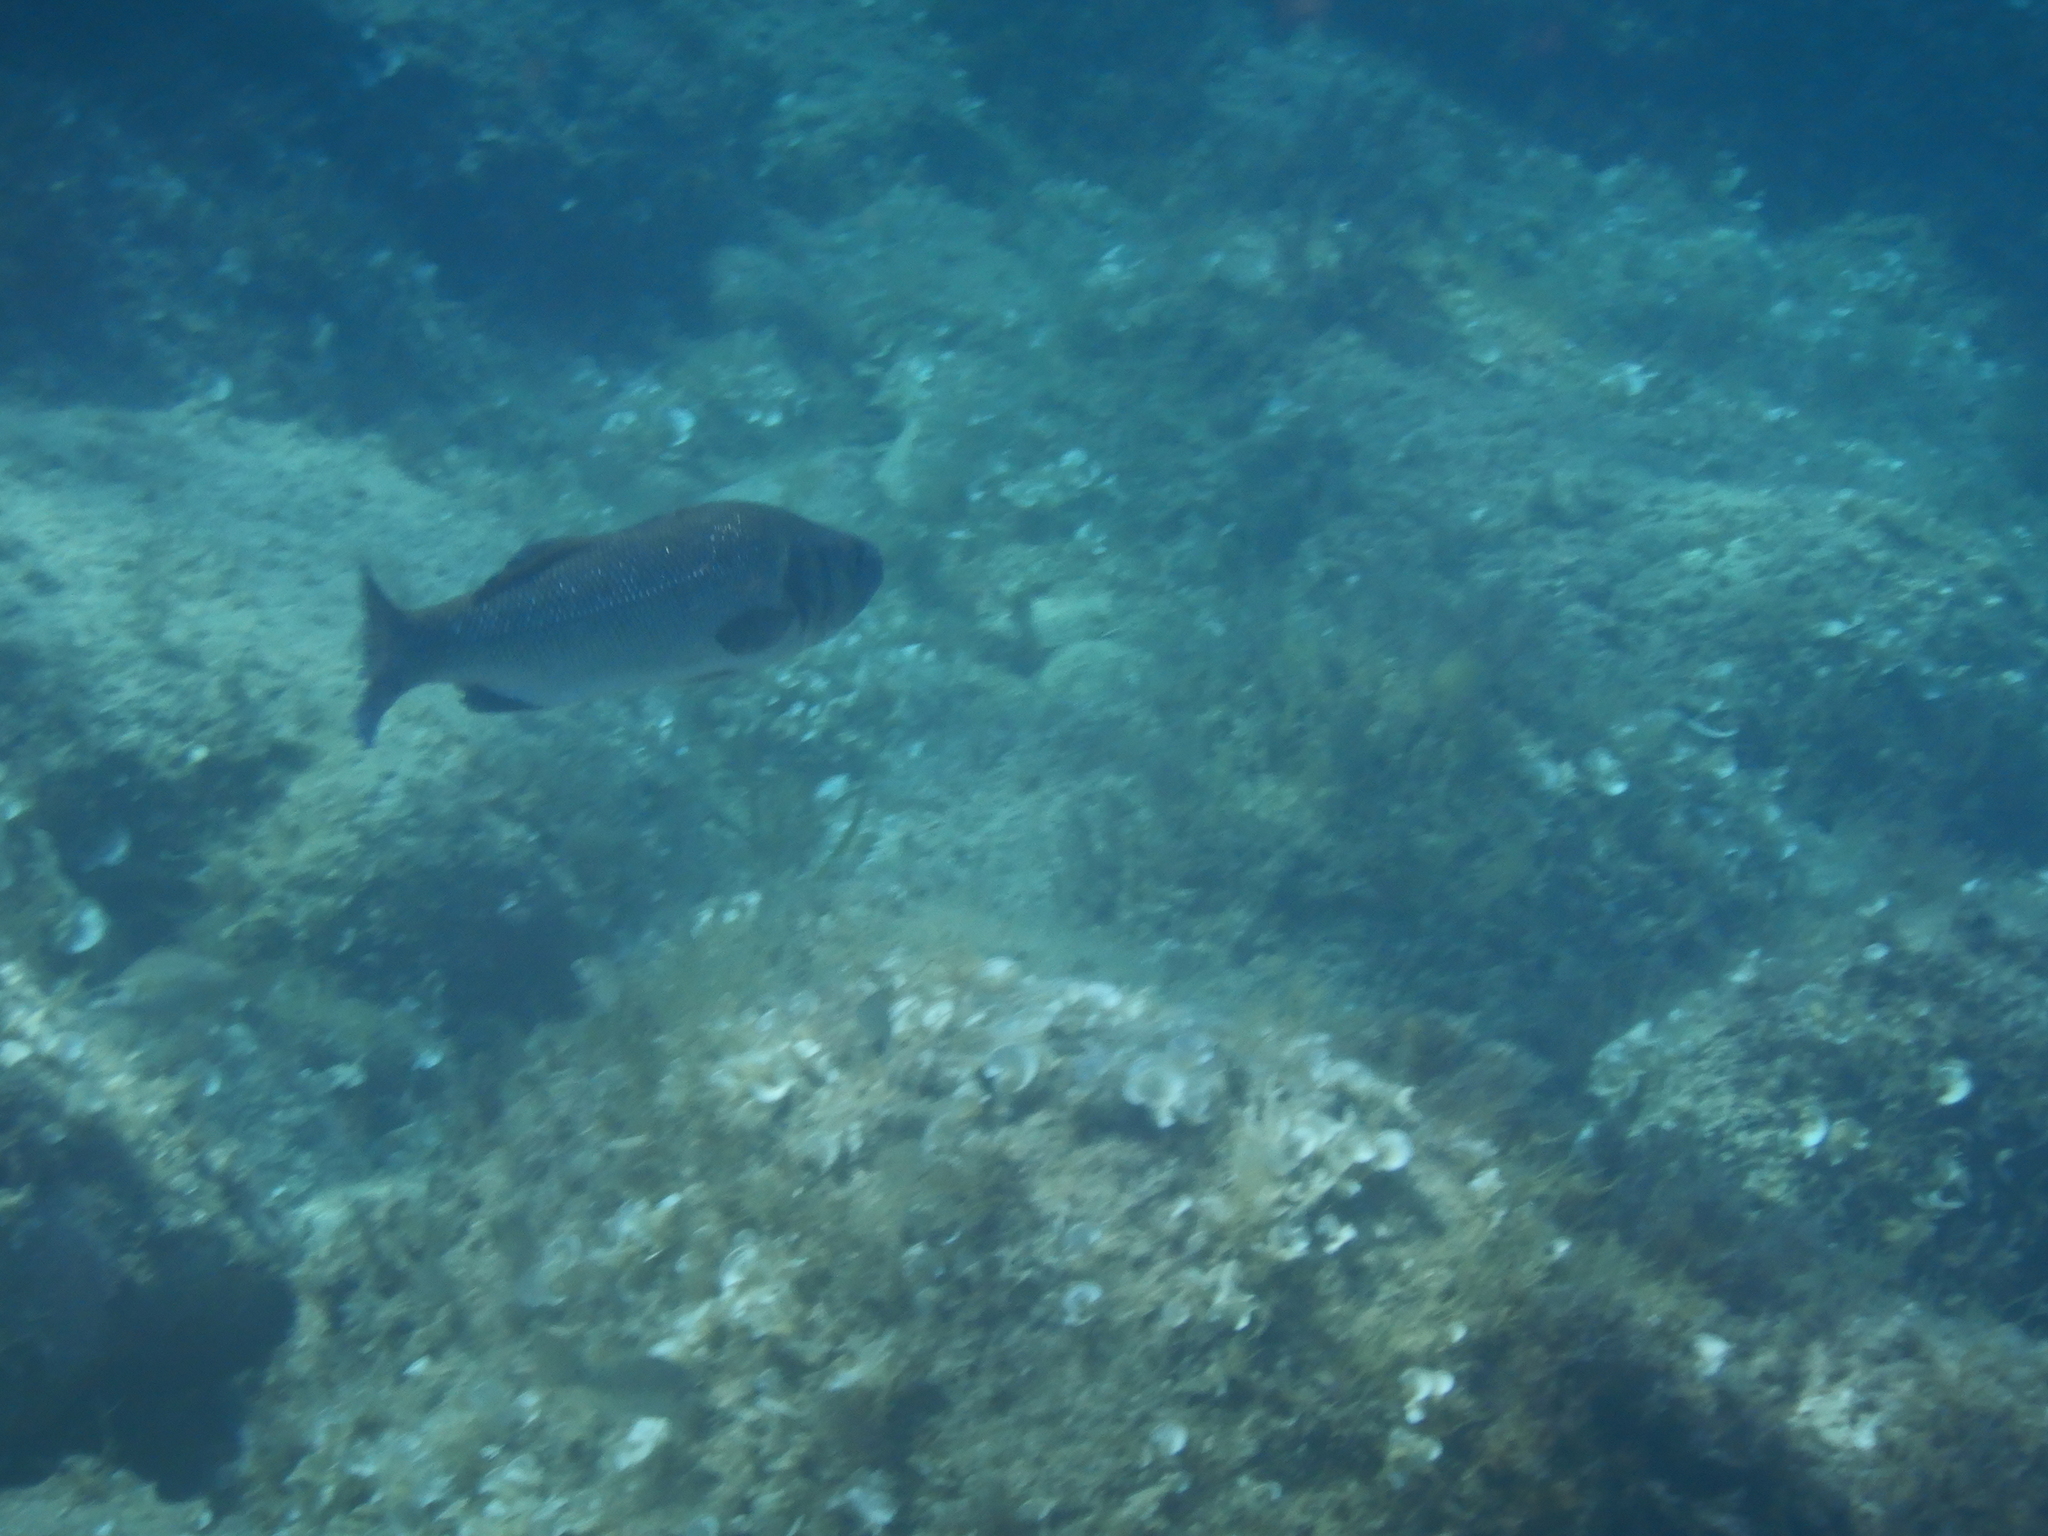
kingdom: Animalia
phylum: Chordata
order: Perciformes
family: Moronidae
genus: Dicentrarchus
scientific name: Dicentrarchus labrax
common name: European seabass
